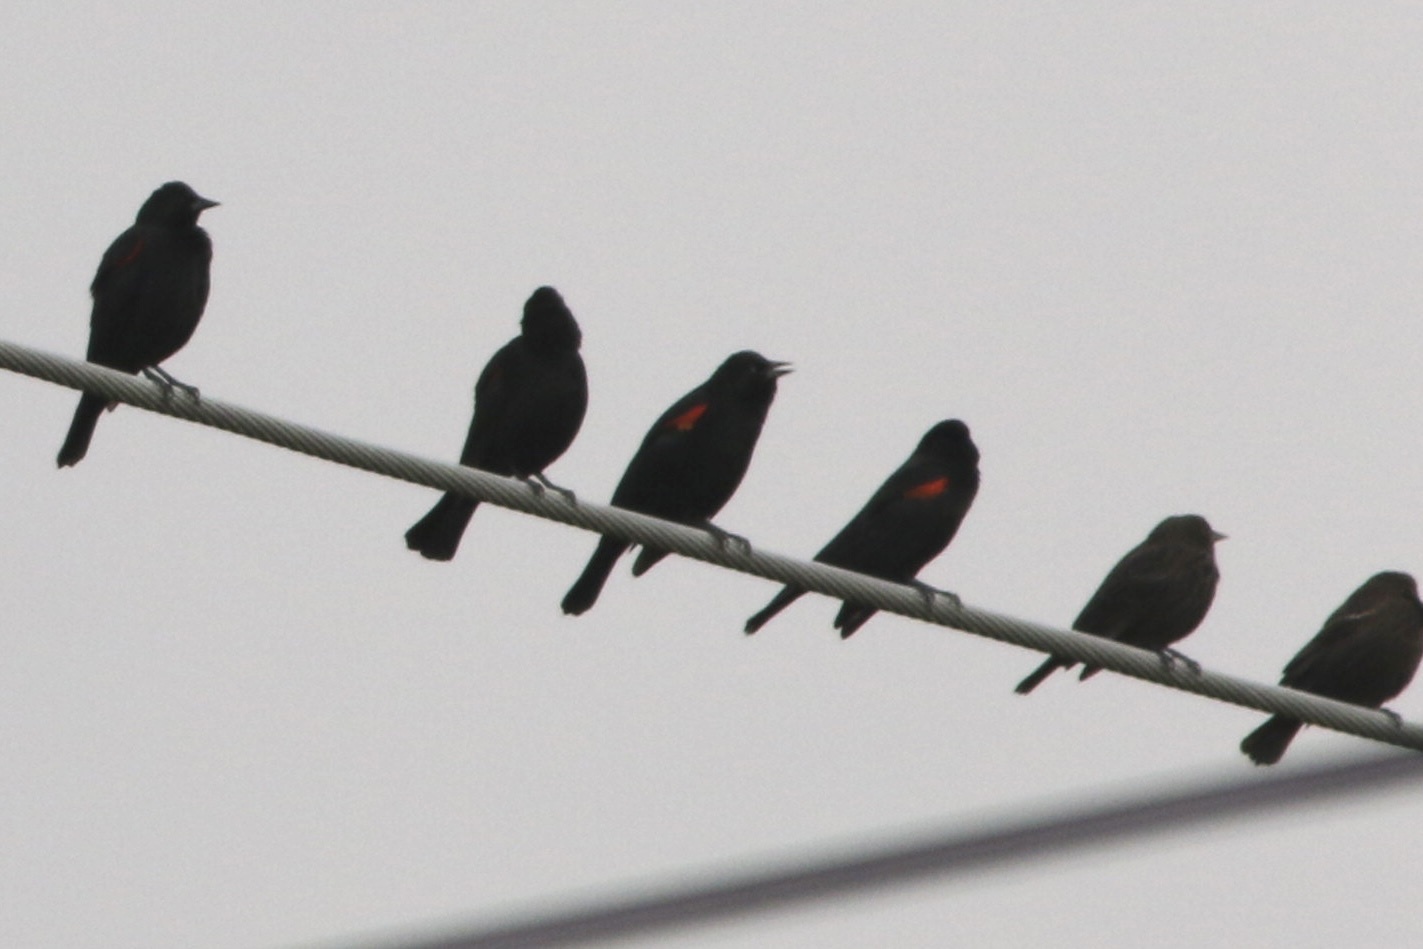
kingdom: Animalia
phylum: Chordata
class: Aves
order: Passeriformes
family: Icteridae
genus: Agelaius
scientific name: Agelaius phoeniceus
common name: Red-winged blackbird
